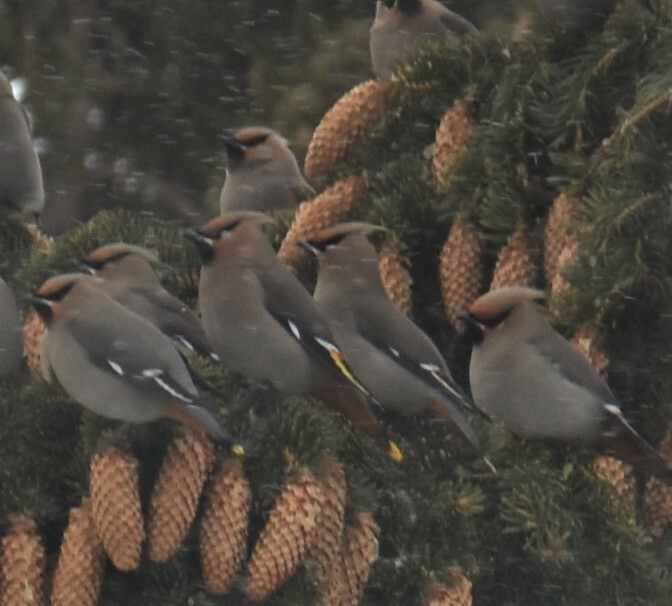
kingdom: Animalia
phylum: Chordata
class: Aves
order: Passeriformes
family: Bombycillidae
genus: Bombycilla
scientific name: Bombycilla garrulus
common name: Bohemian waxwing
